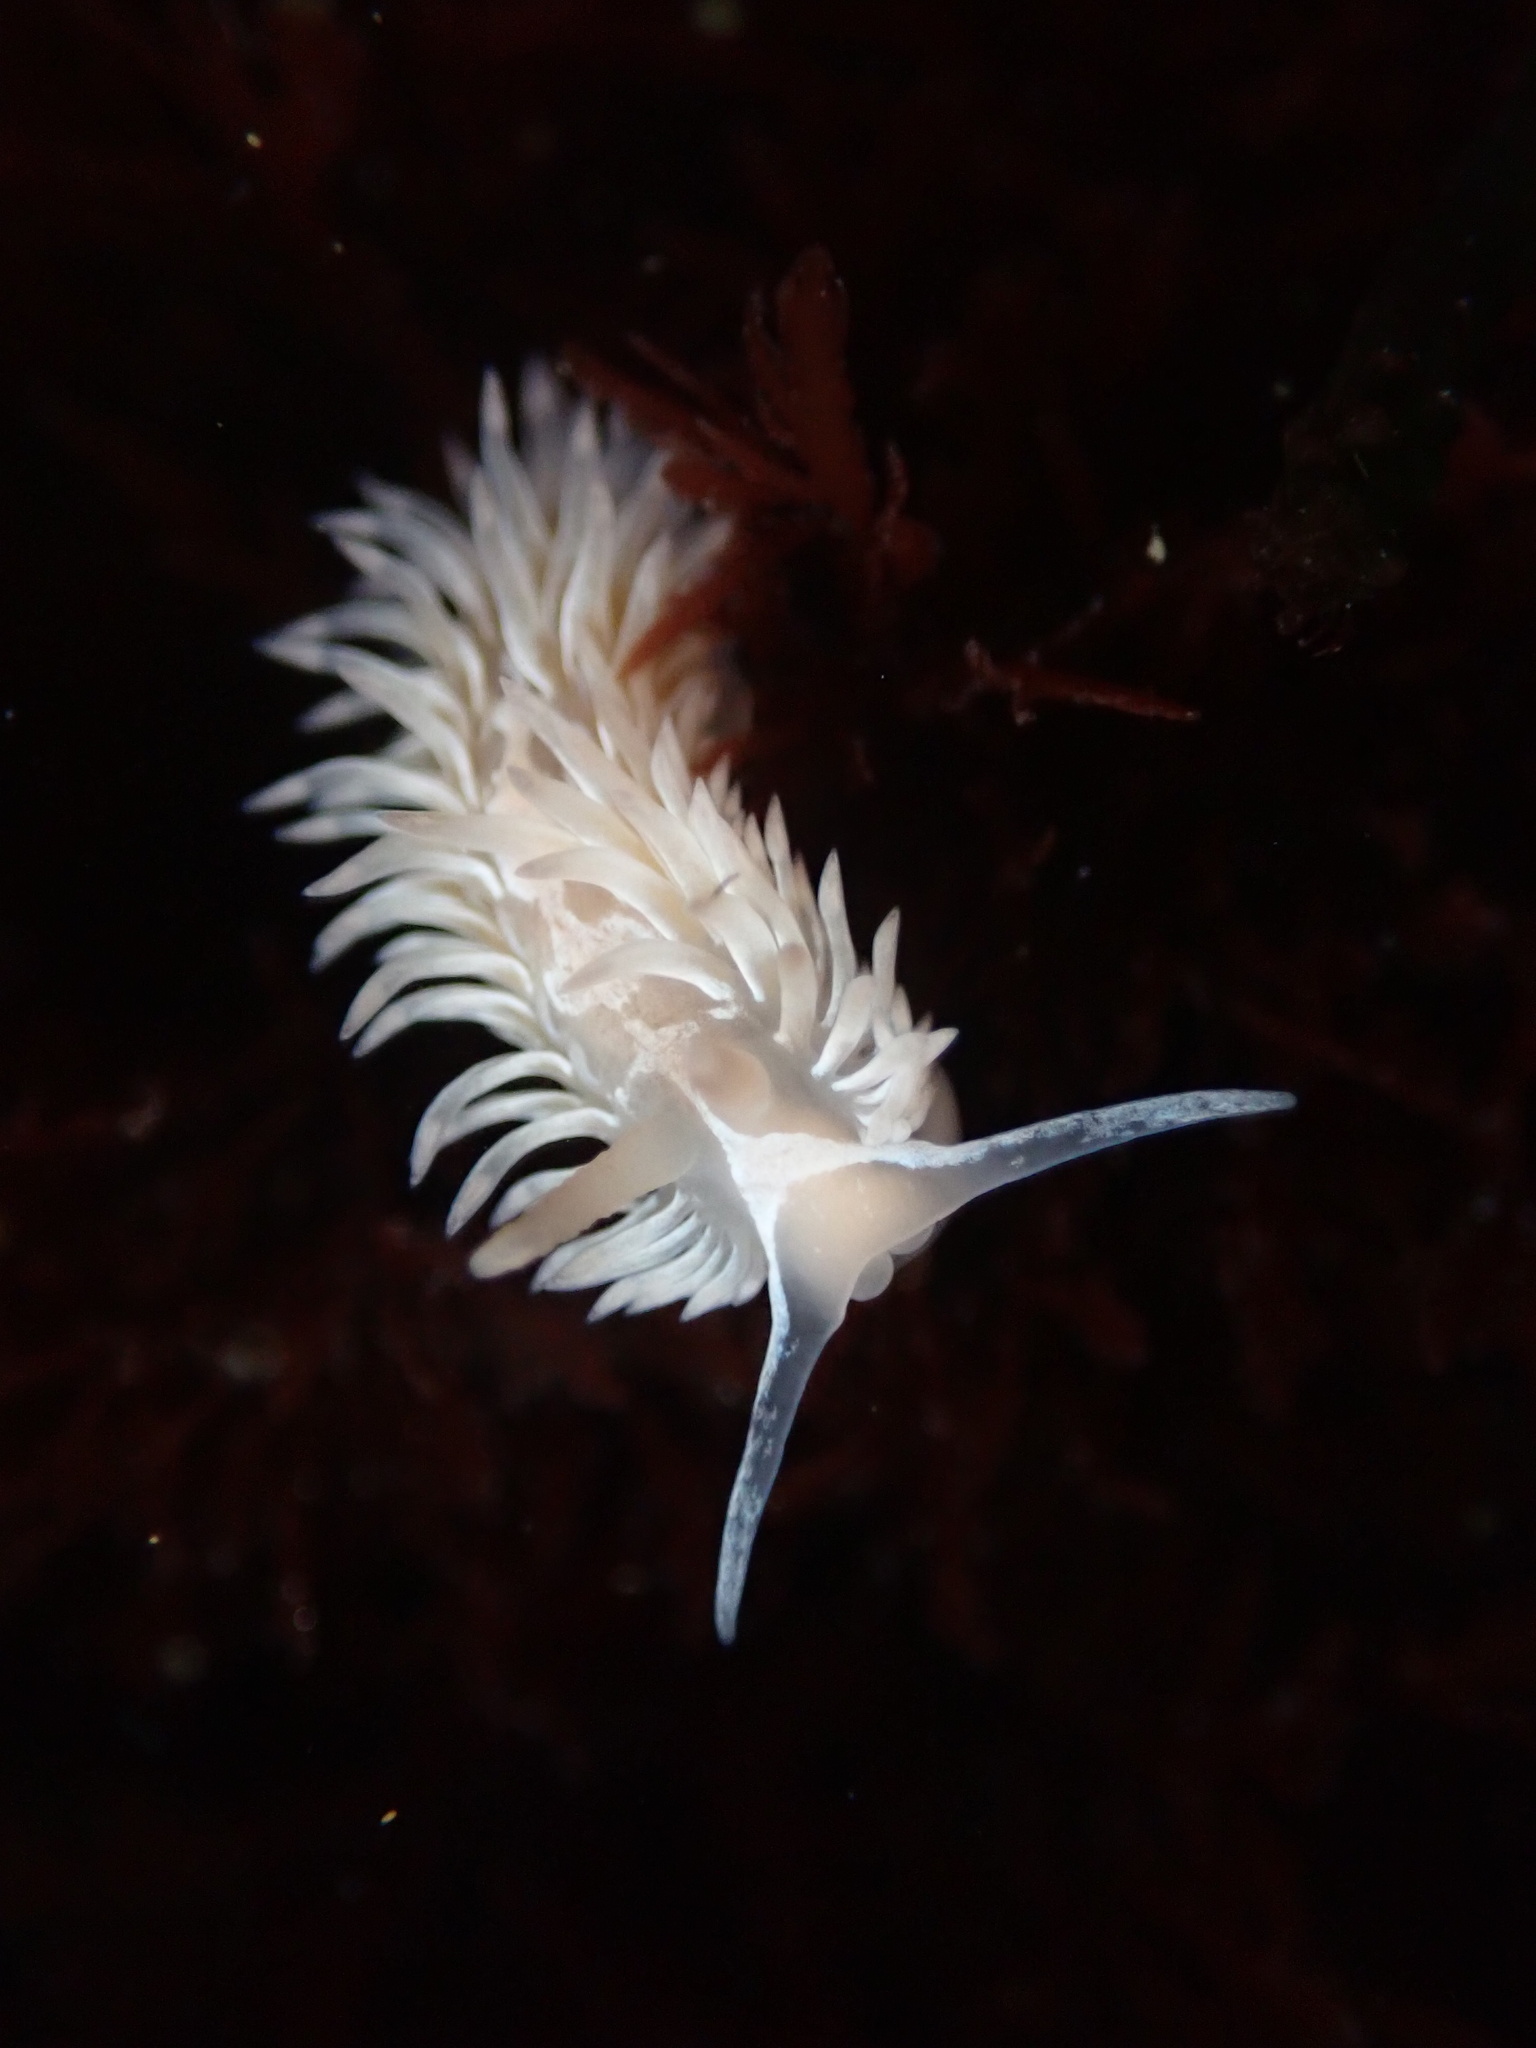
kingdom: Animalia
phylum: Mollusca
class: Gastropoda
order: Nudibranchia
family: Aeolidiidae
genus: Aeolidia
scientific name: Aeolidia loui
